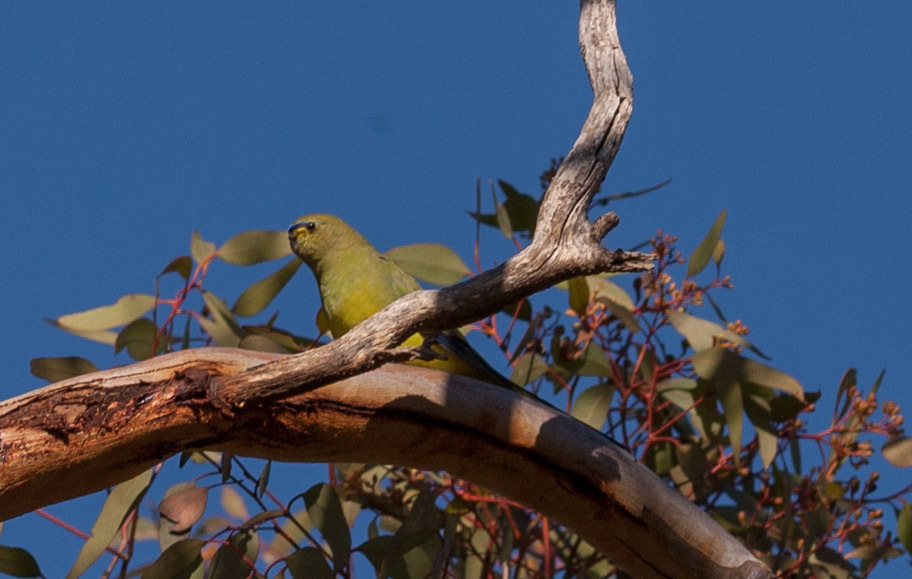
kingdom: Animalia
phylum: Chordata
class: Aves
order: Psittaciformes
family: Psittacidae
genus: Neophema
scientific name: Neophema elegans
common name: Elegant parrot
